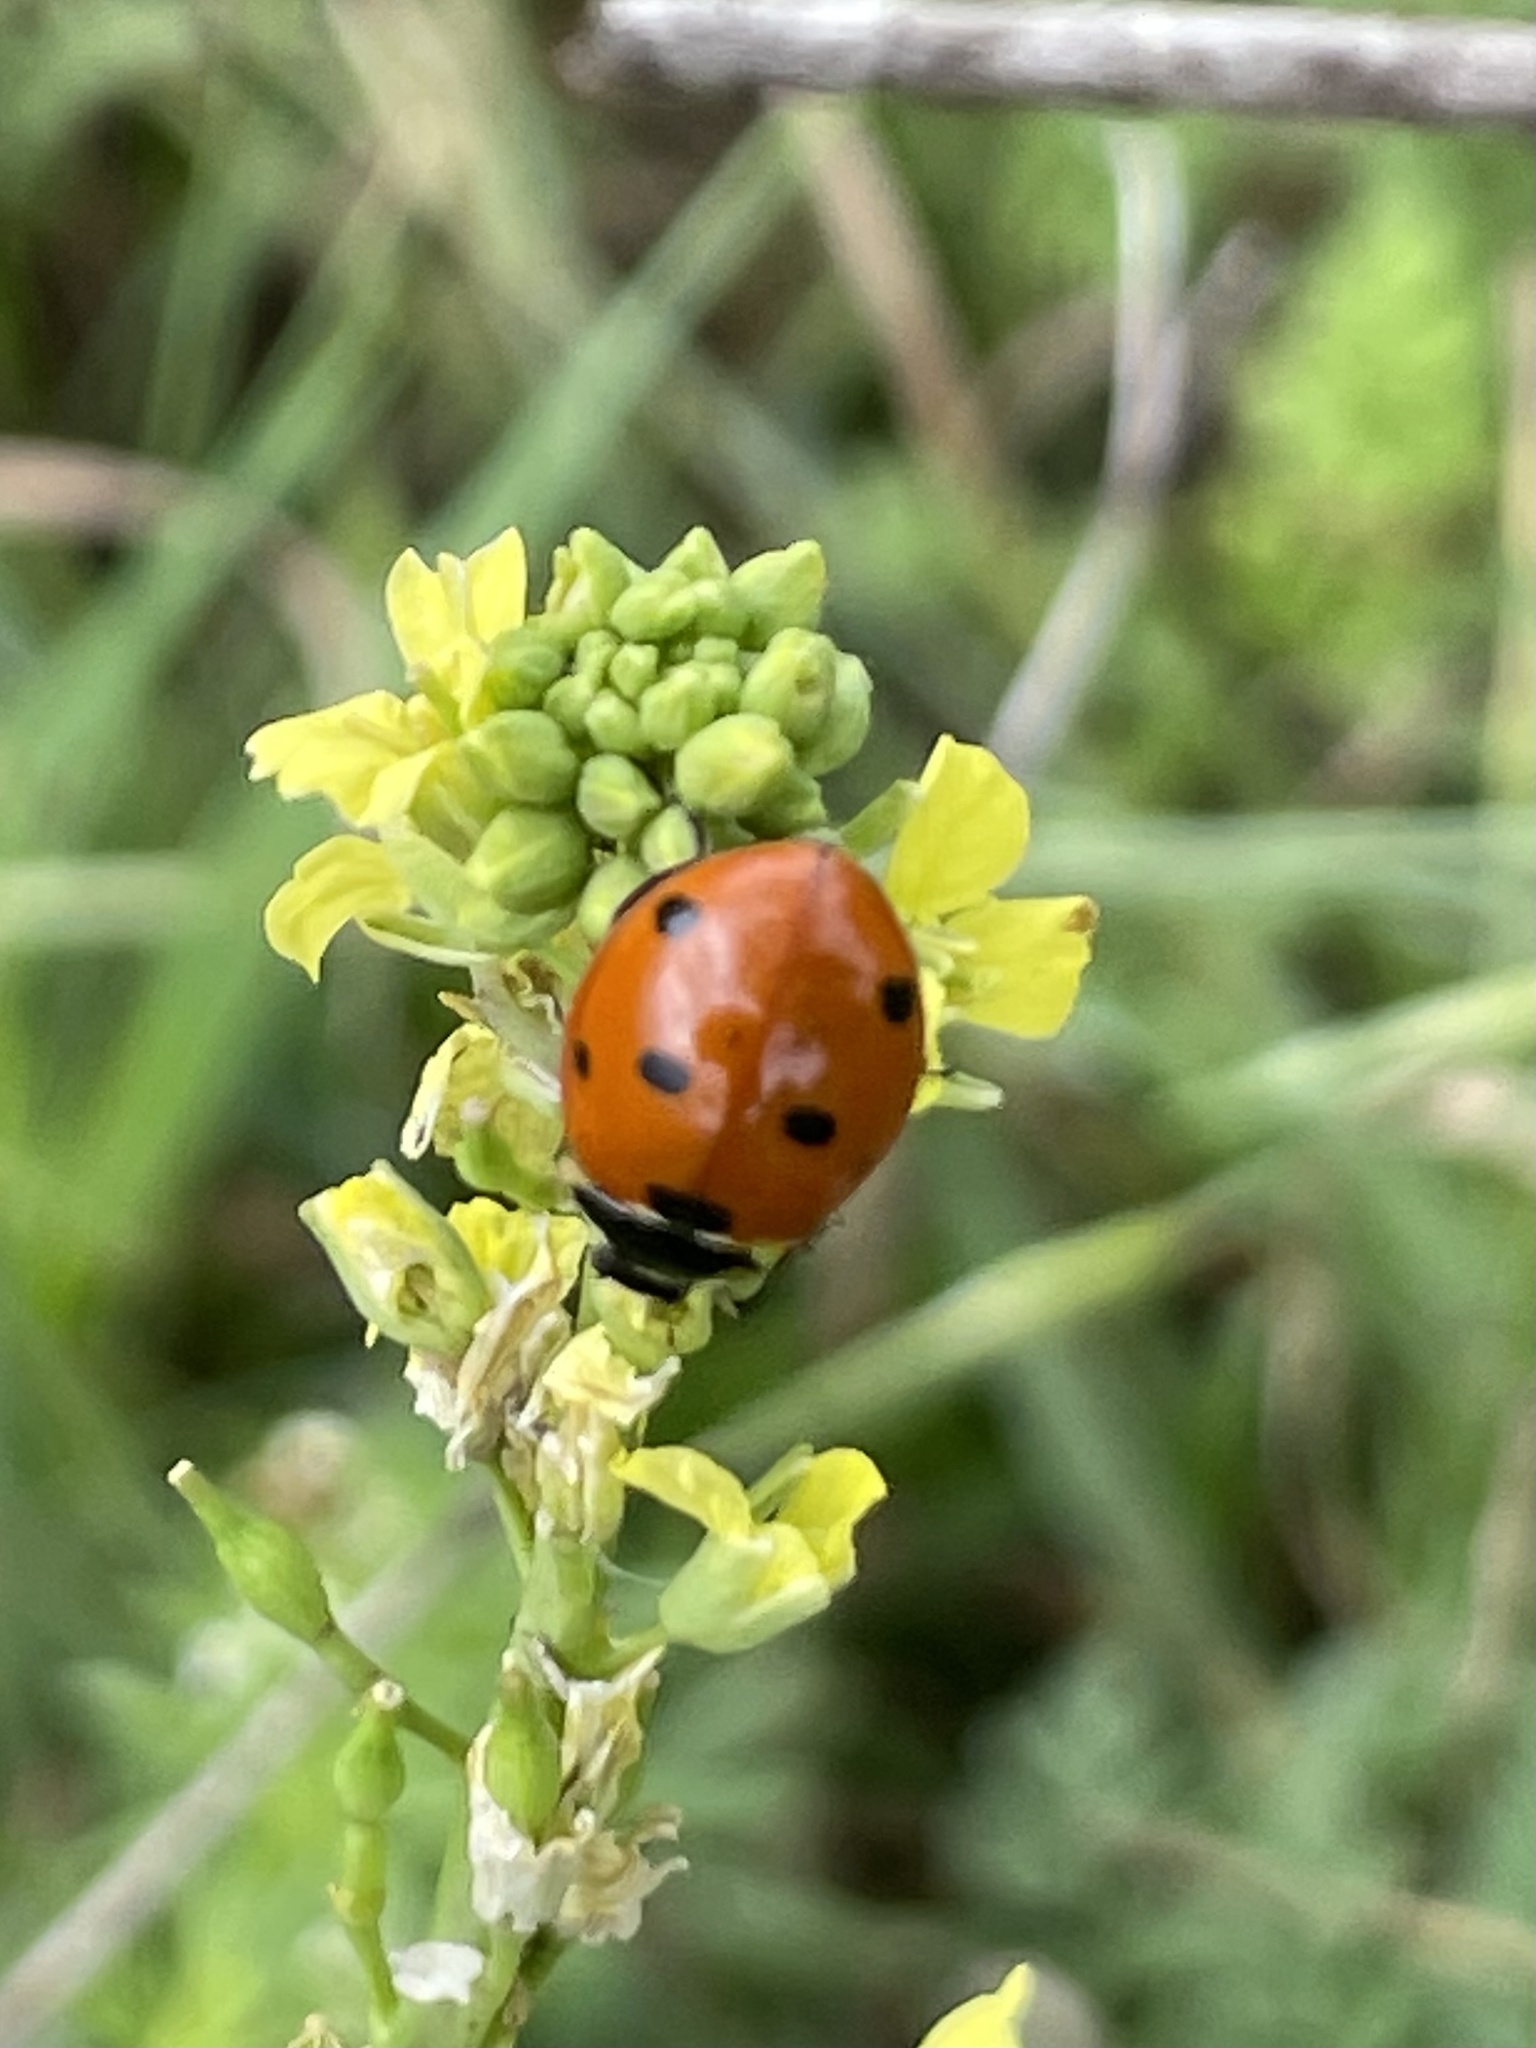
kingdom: Animalia
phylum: Arthropoda
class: Insecta
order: Coleoptera
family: Coccinellidae
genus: Coccinella
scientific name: Coccinella septempunctata
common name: Sevenspotted lady beetle
